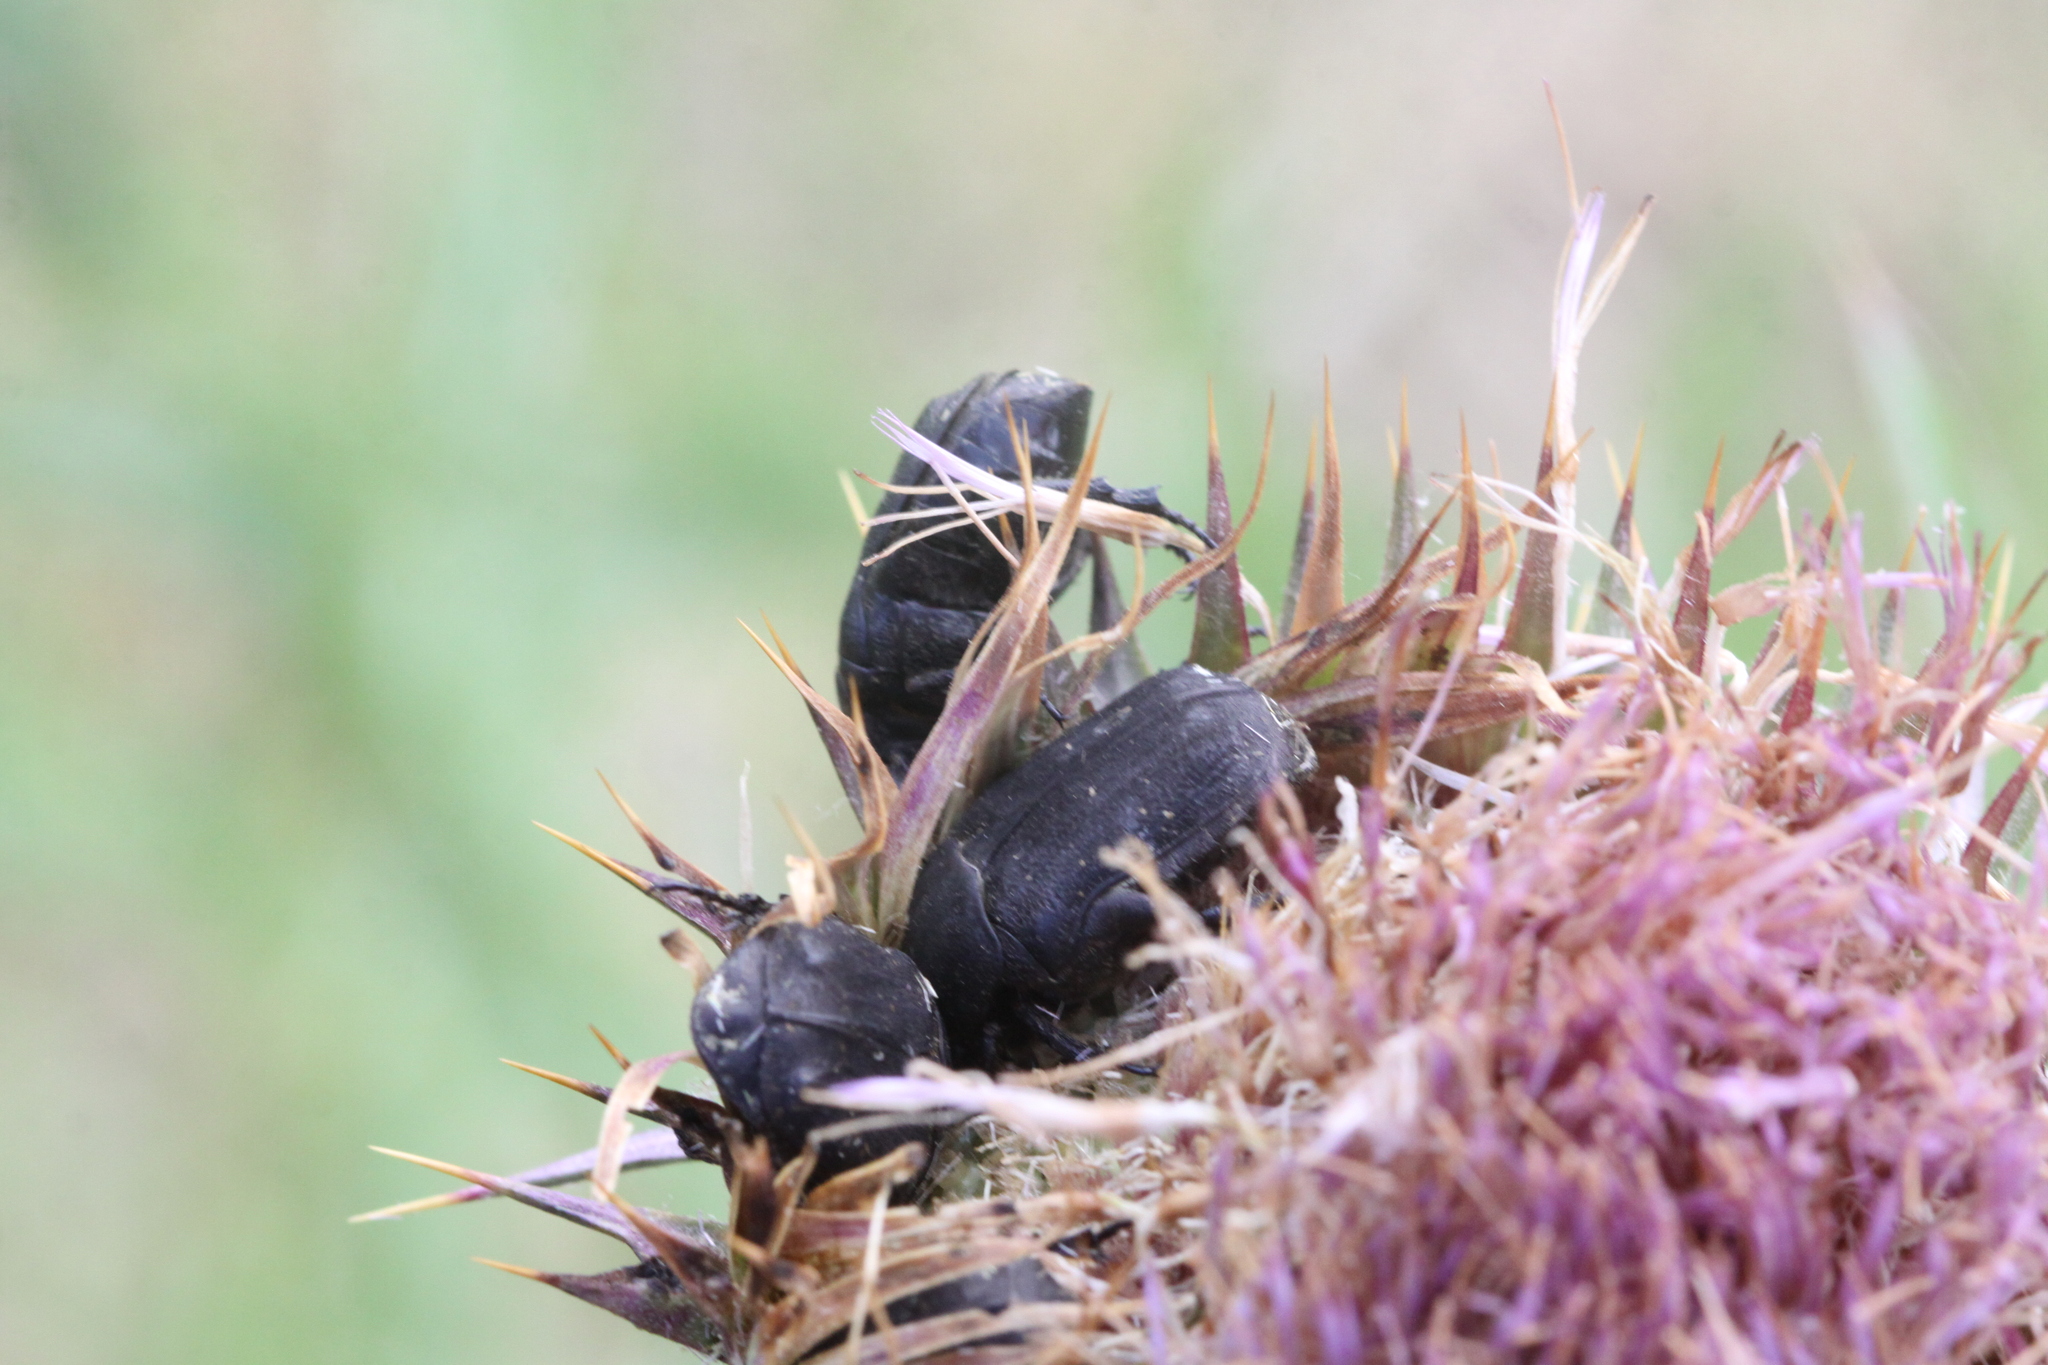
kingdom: Animalia
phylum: Arthropoda
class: Insecta
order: Coleoptera
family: Scarabaeidae
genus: Protaetia
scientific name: Protaetia morio
